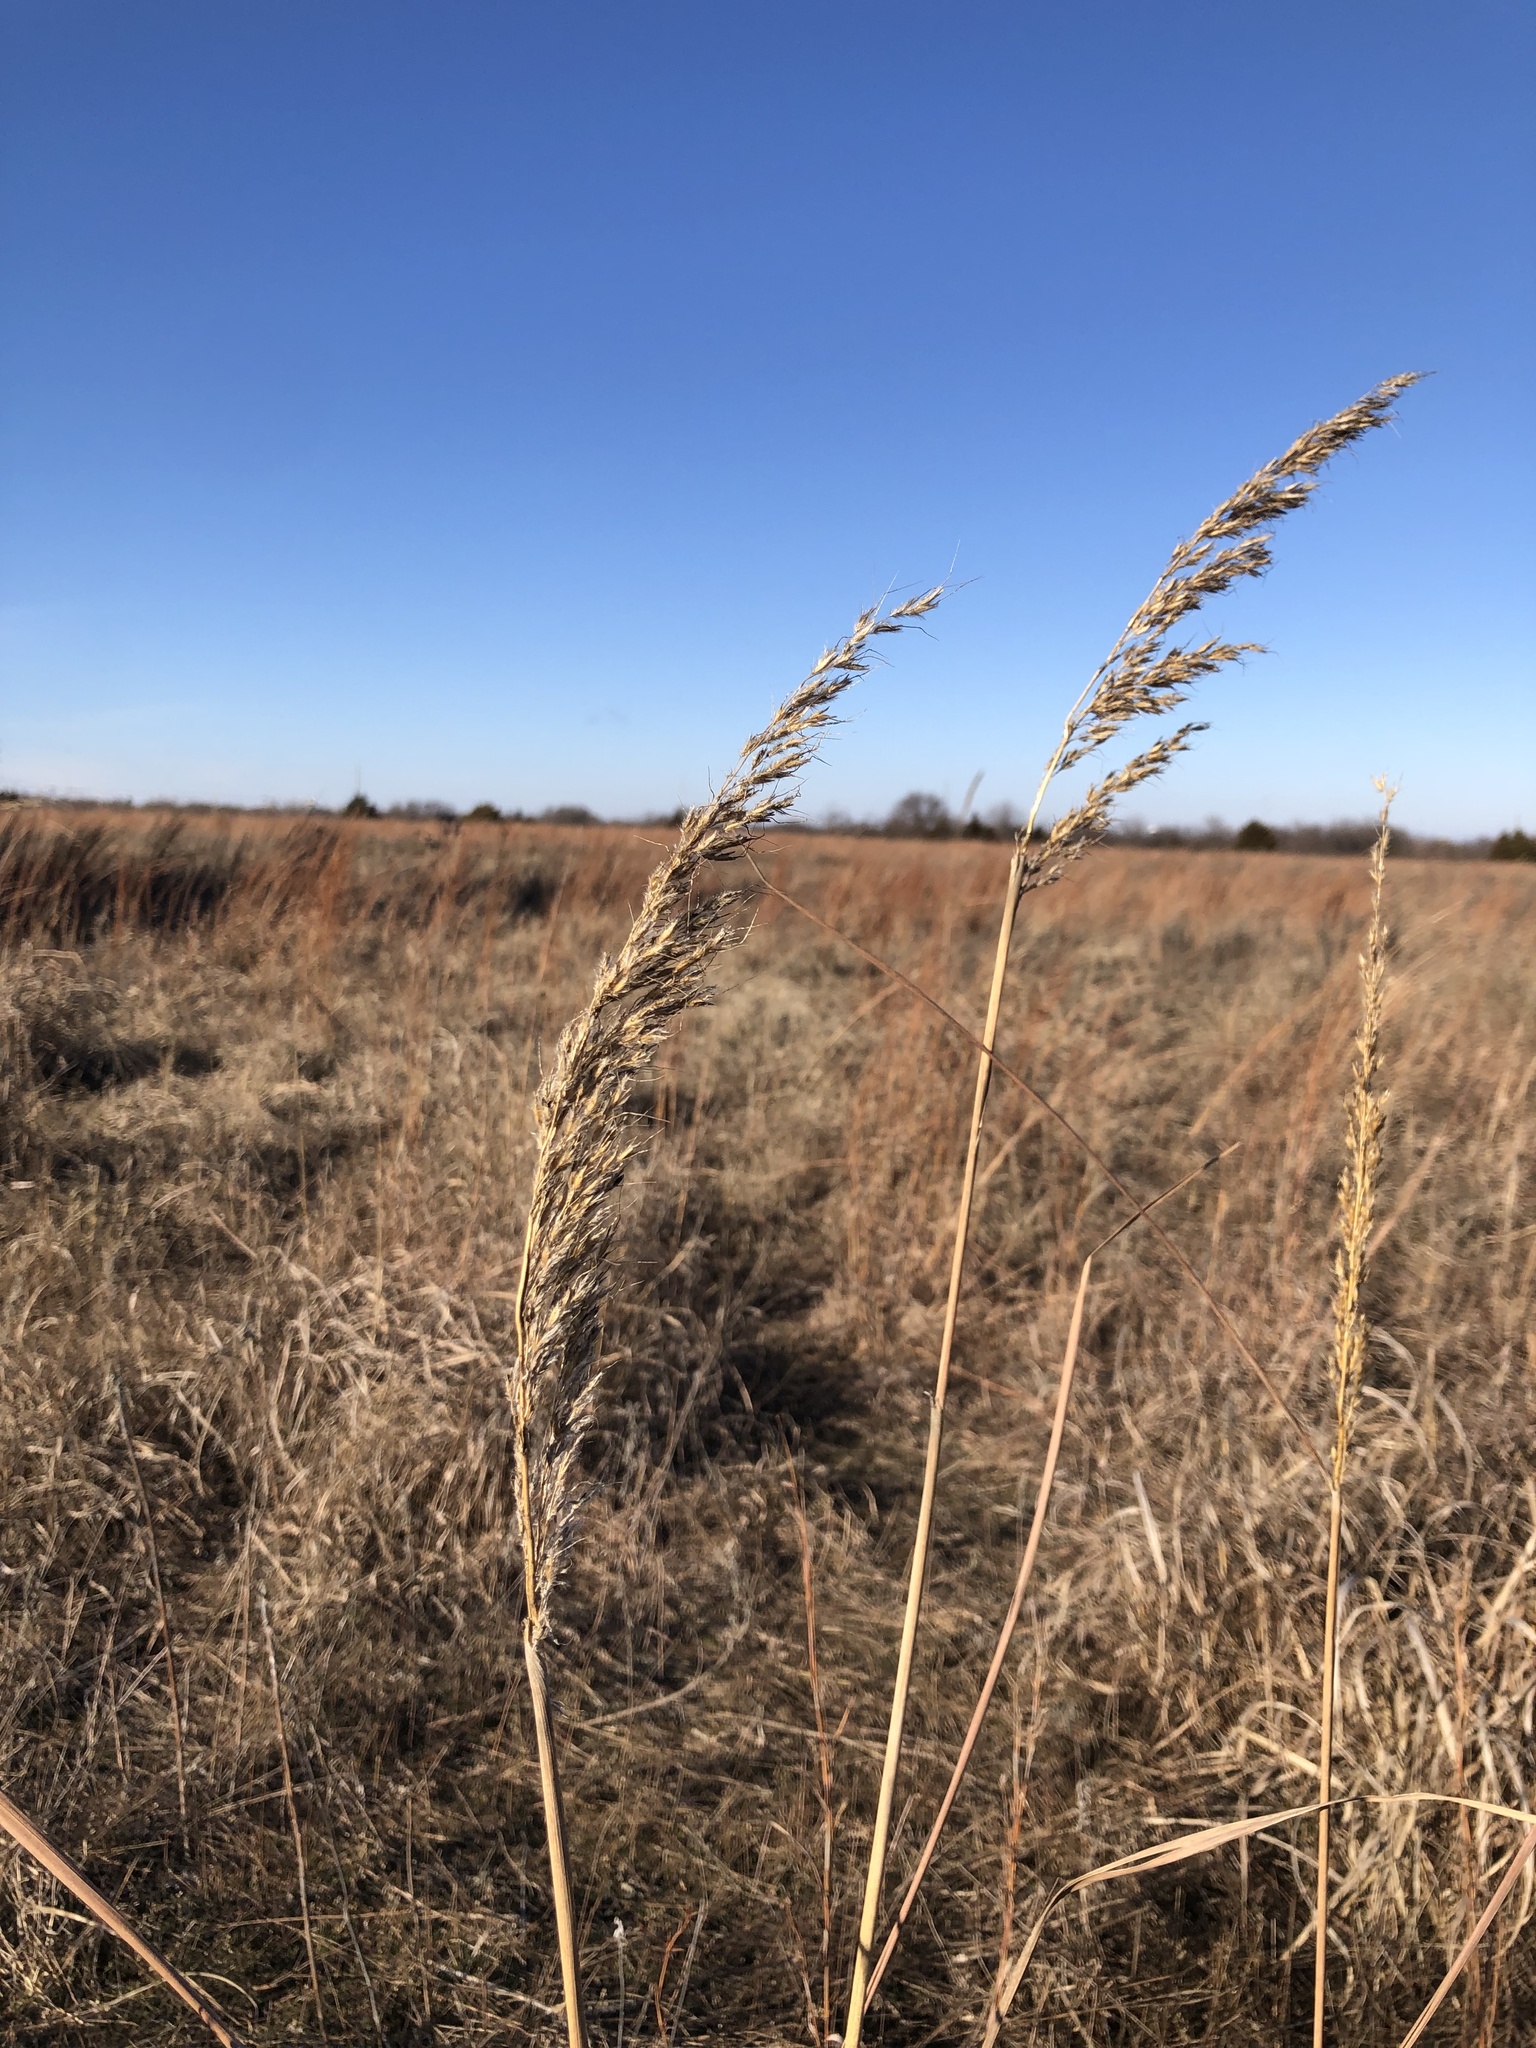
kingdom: Plantae
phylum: Tracheophyta
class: Liliopsida
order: Poales
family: Poaceae
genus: Sorghastrum
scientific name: Sorghastrum nutans
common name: Indian grass
